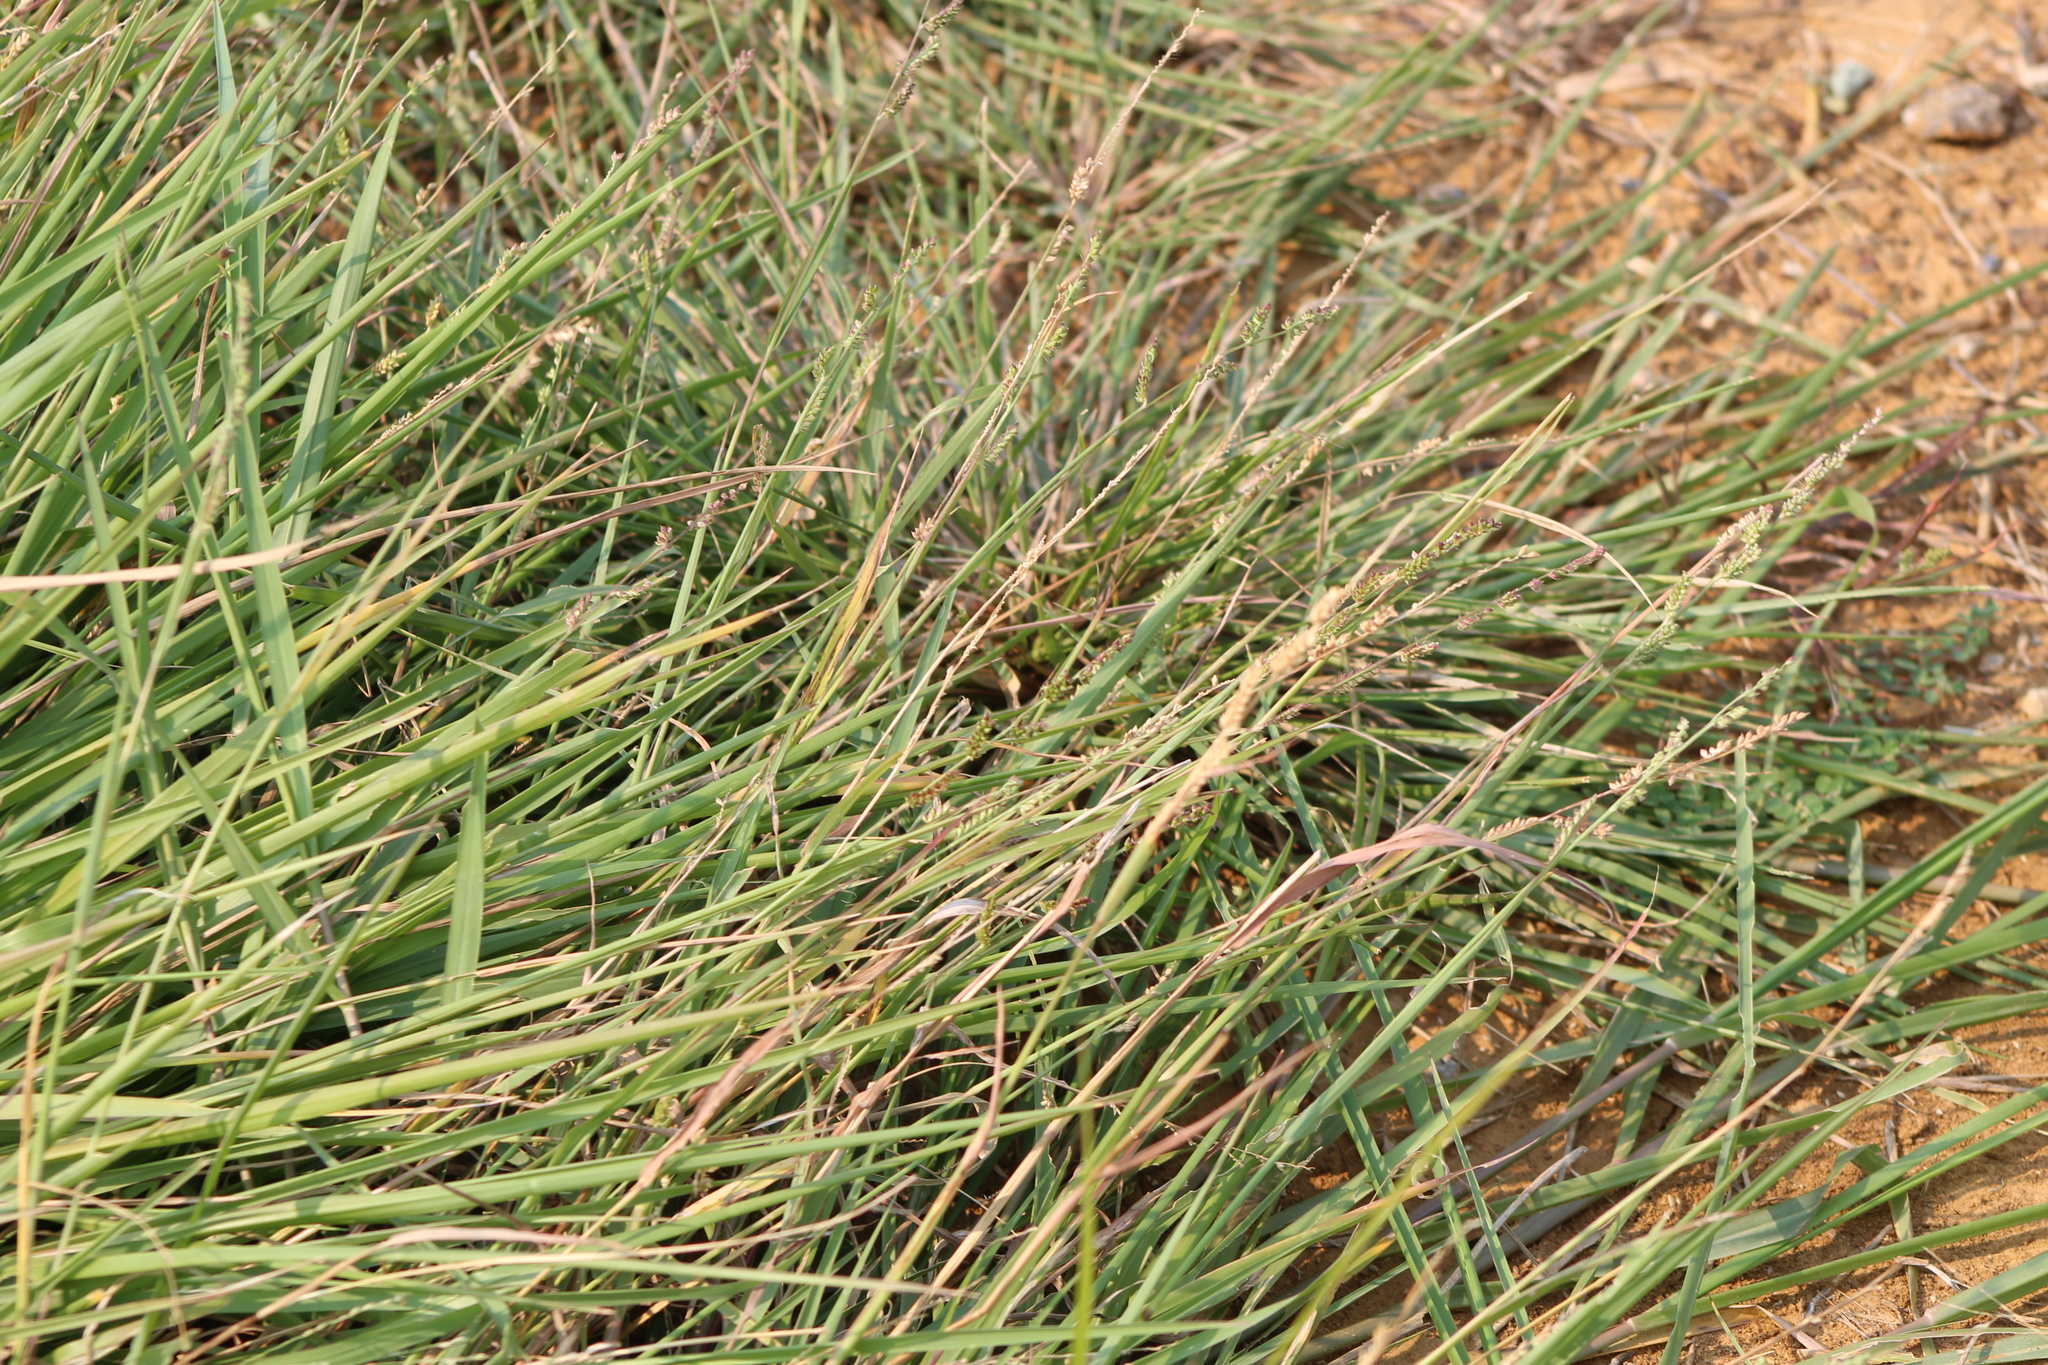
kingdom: Plantae
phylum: Tracheophyta
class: Liliopsida
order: Poales
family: Poaceae
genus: Echinochloa
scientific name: Echinochloa colonum
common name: Jungle rice
